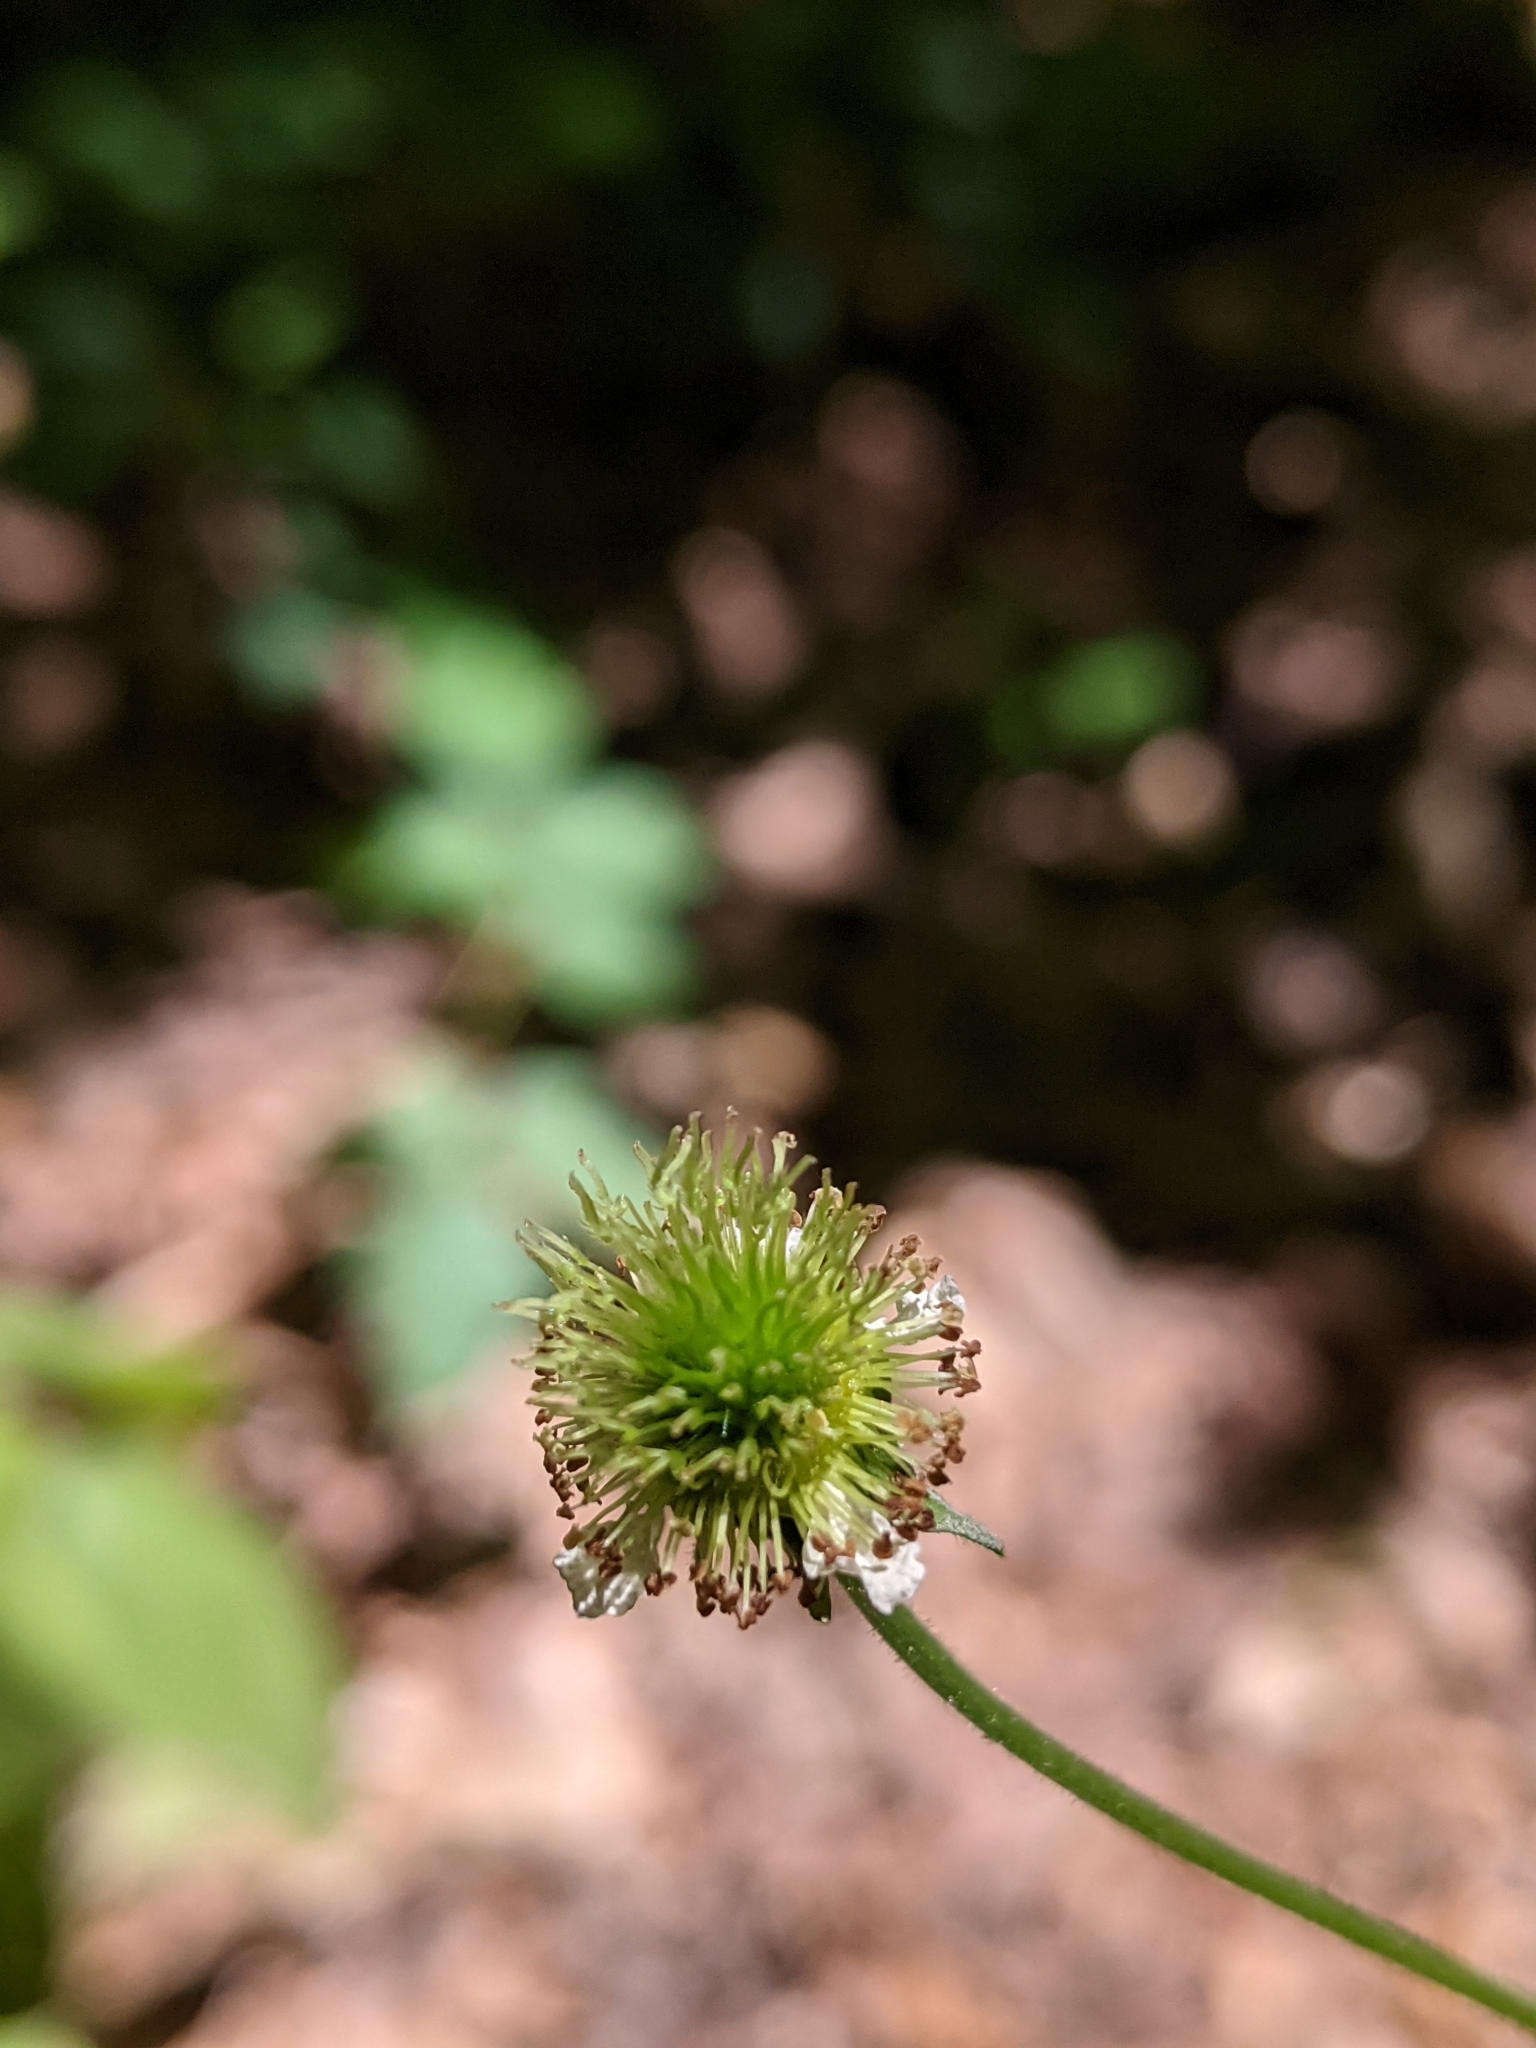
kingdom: Plantae
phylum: Tracheophyta
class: Magnoliopsida
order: Rosales
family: Rosaceae
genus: Geum
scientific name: Geum canadense
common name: White avens
